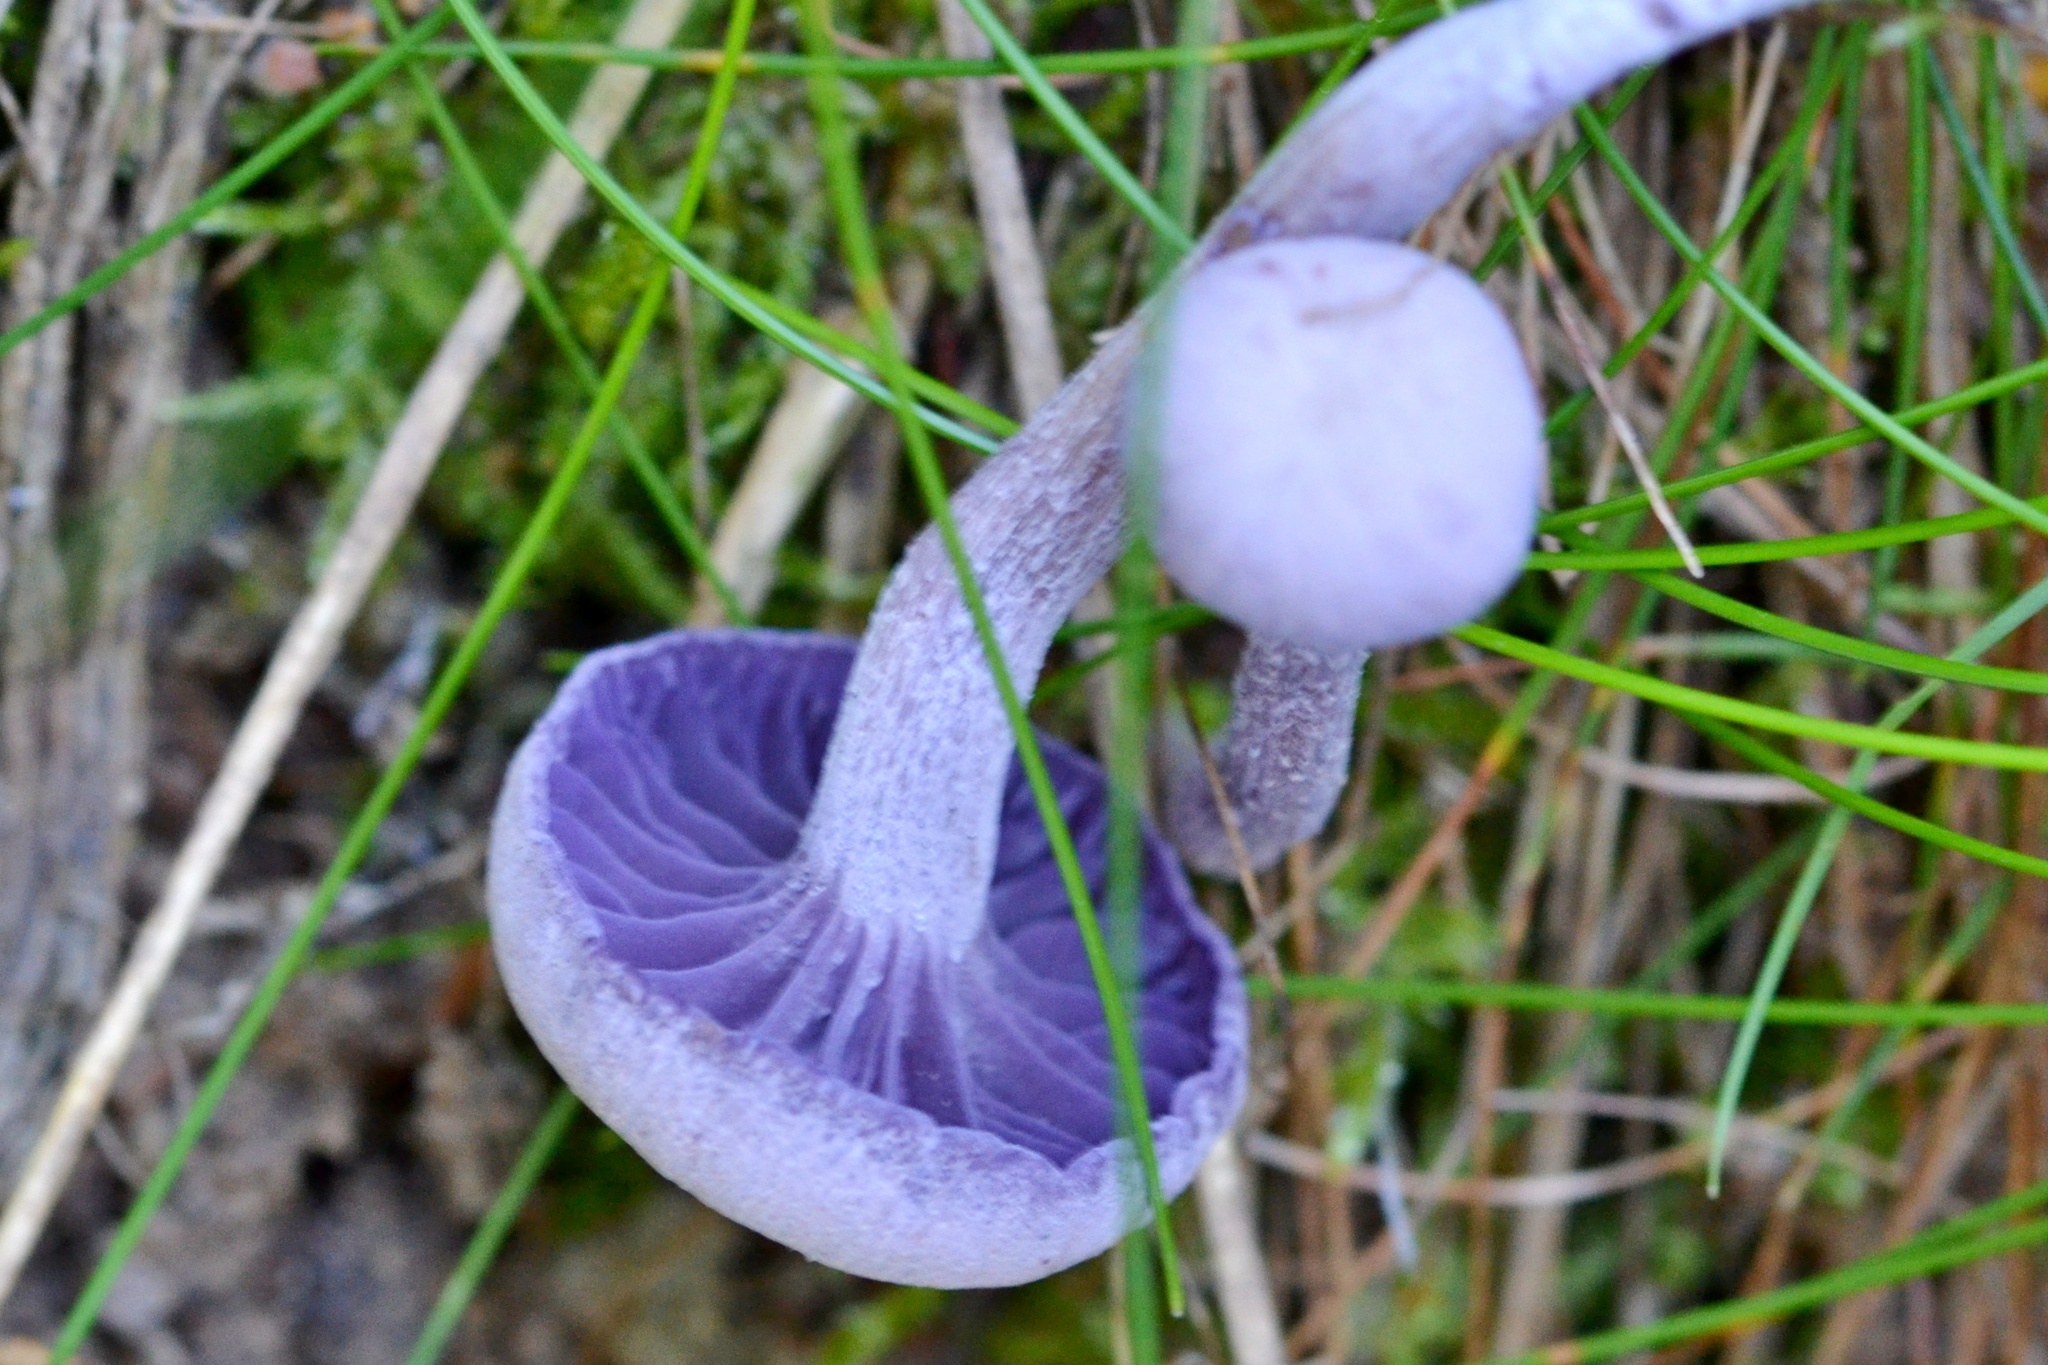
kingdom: Fungi
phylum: Basidiomycota
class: Agaricomycetes
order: Agaricales
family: Hydnangiaceae
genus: Laccaria
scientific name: Laccaria amethystina
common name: Amethyst deceiver
